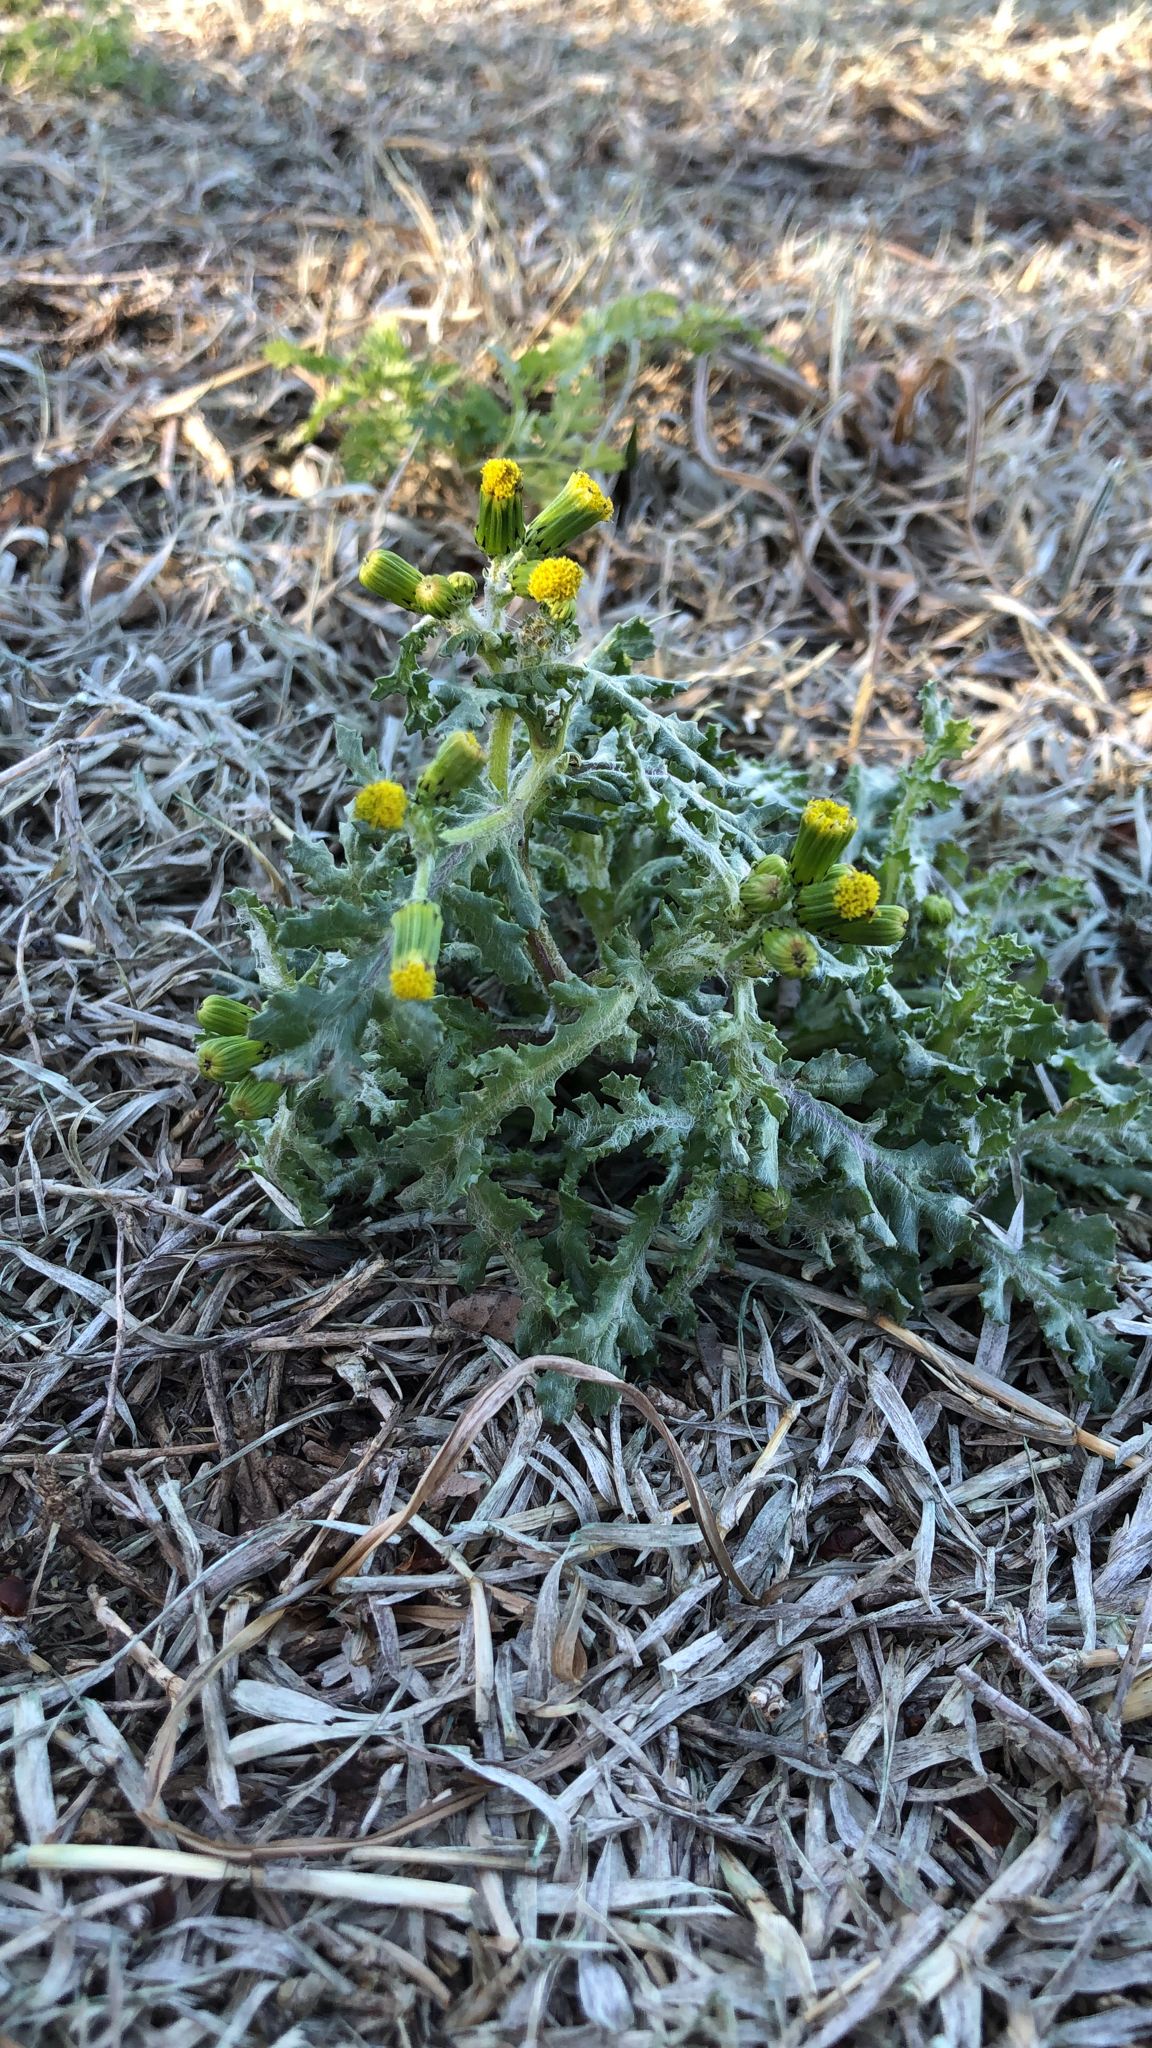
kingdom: Plantae
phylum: Tracheophyta
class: Magnoliopsida
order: Asterales
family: Asteraceae
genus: Senecio
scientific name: Senecio vulgaris
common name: Old-man-in-the-spring
